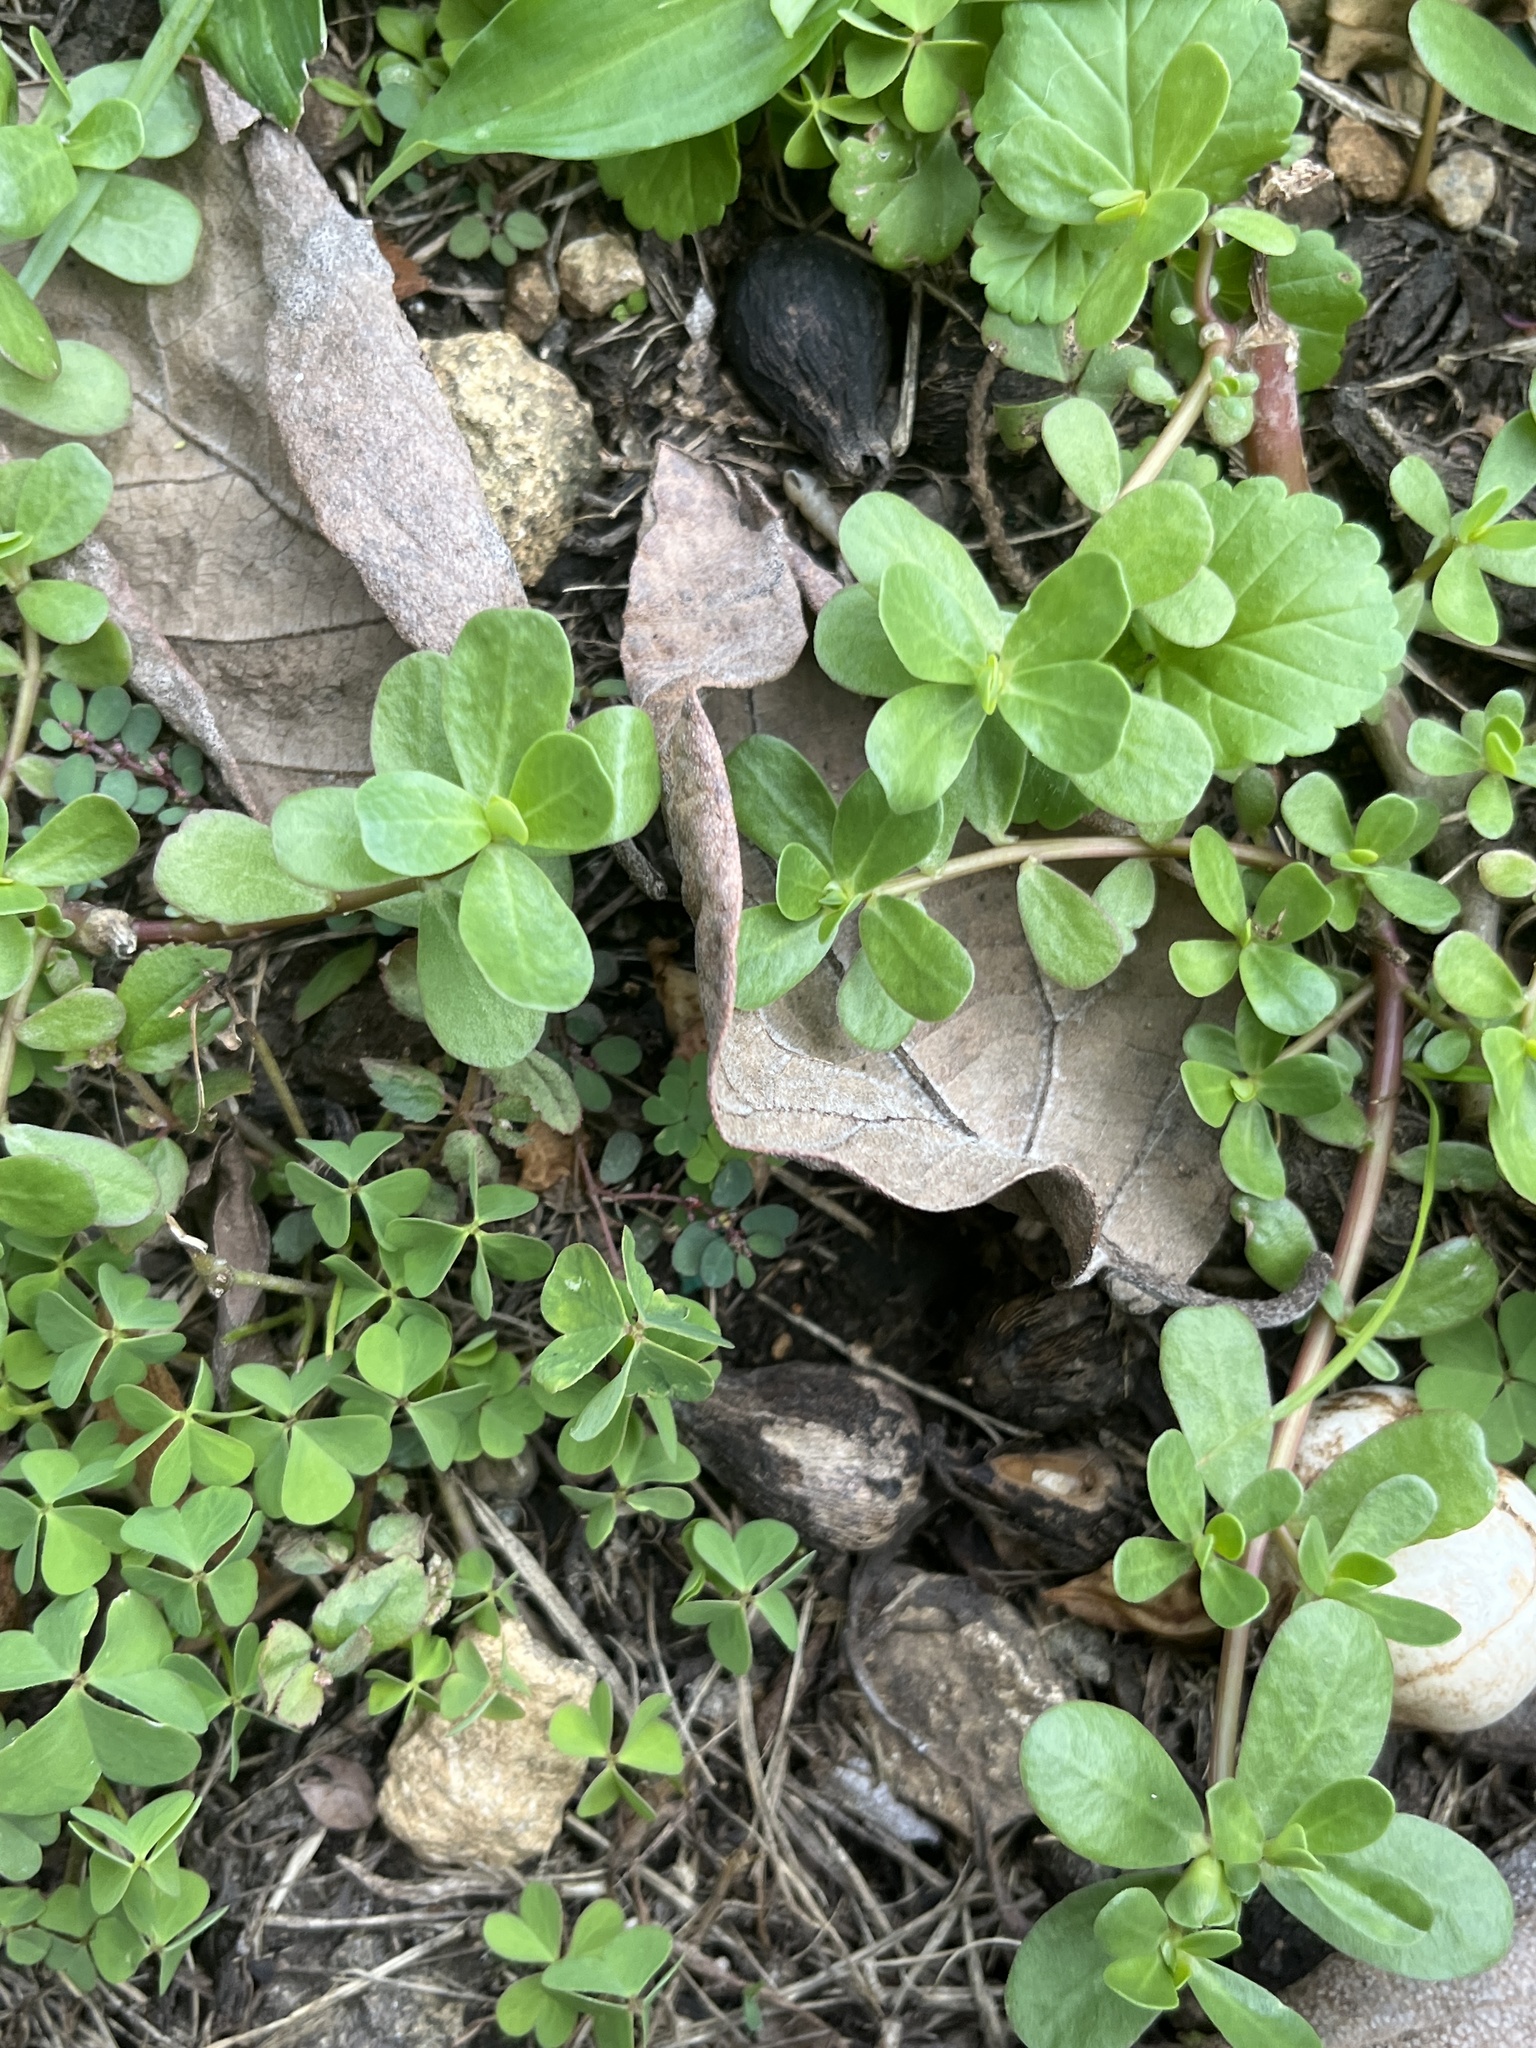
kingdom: Plantae
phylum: Tracheophyta
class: Magnoliopsida
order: Caryophyllales
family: Portulacaceae
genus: Portulaca
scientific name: Portulaca oleracea
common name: Common purslane
